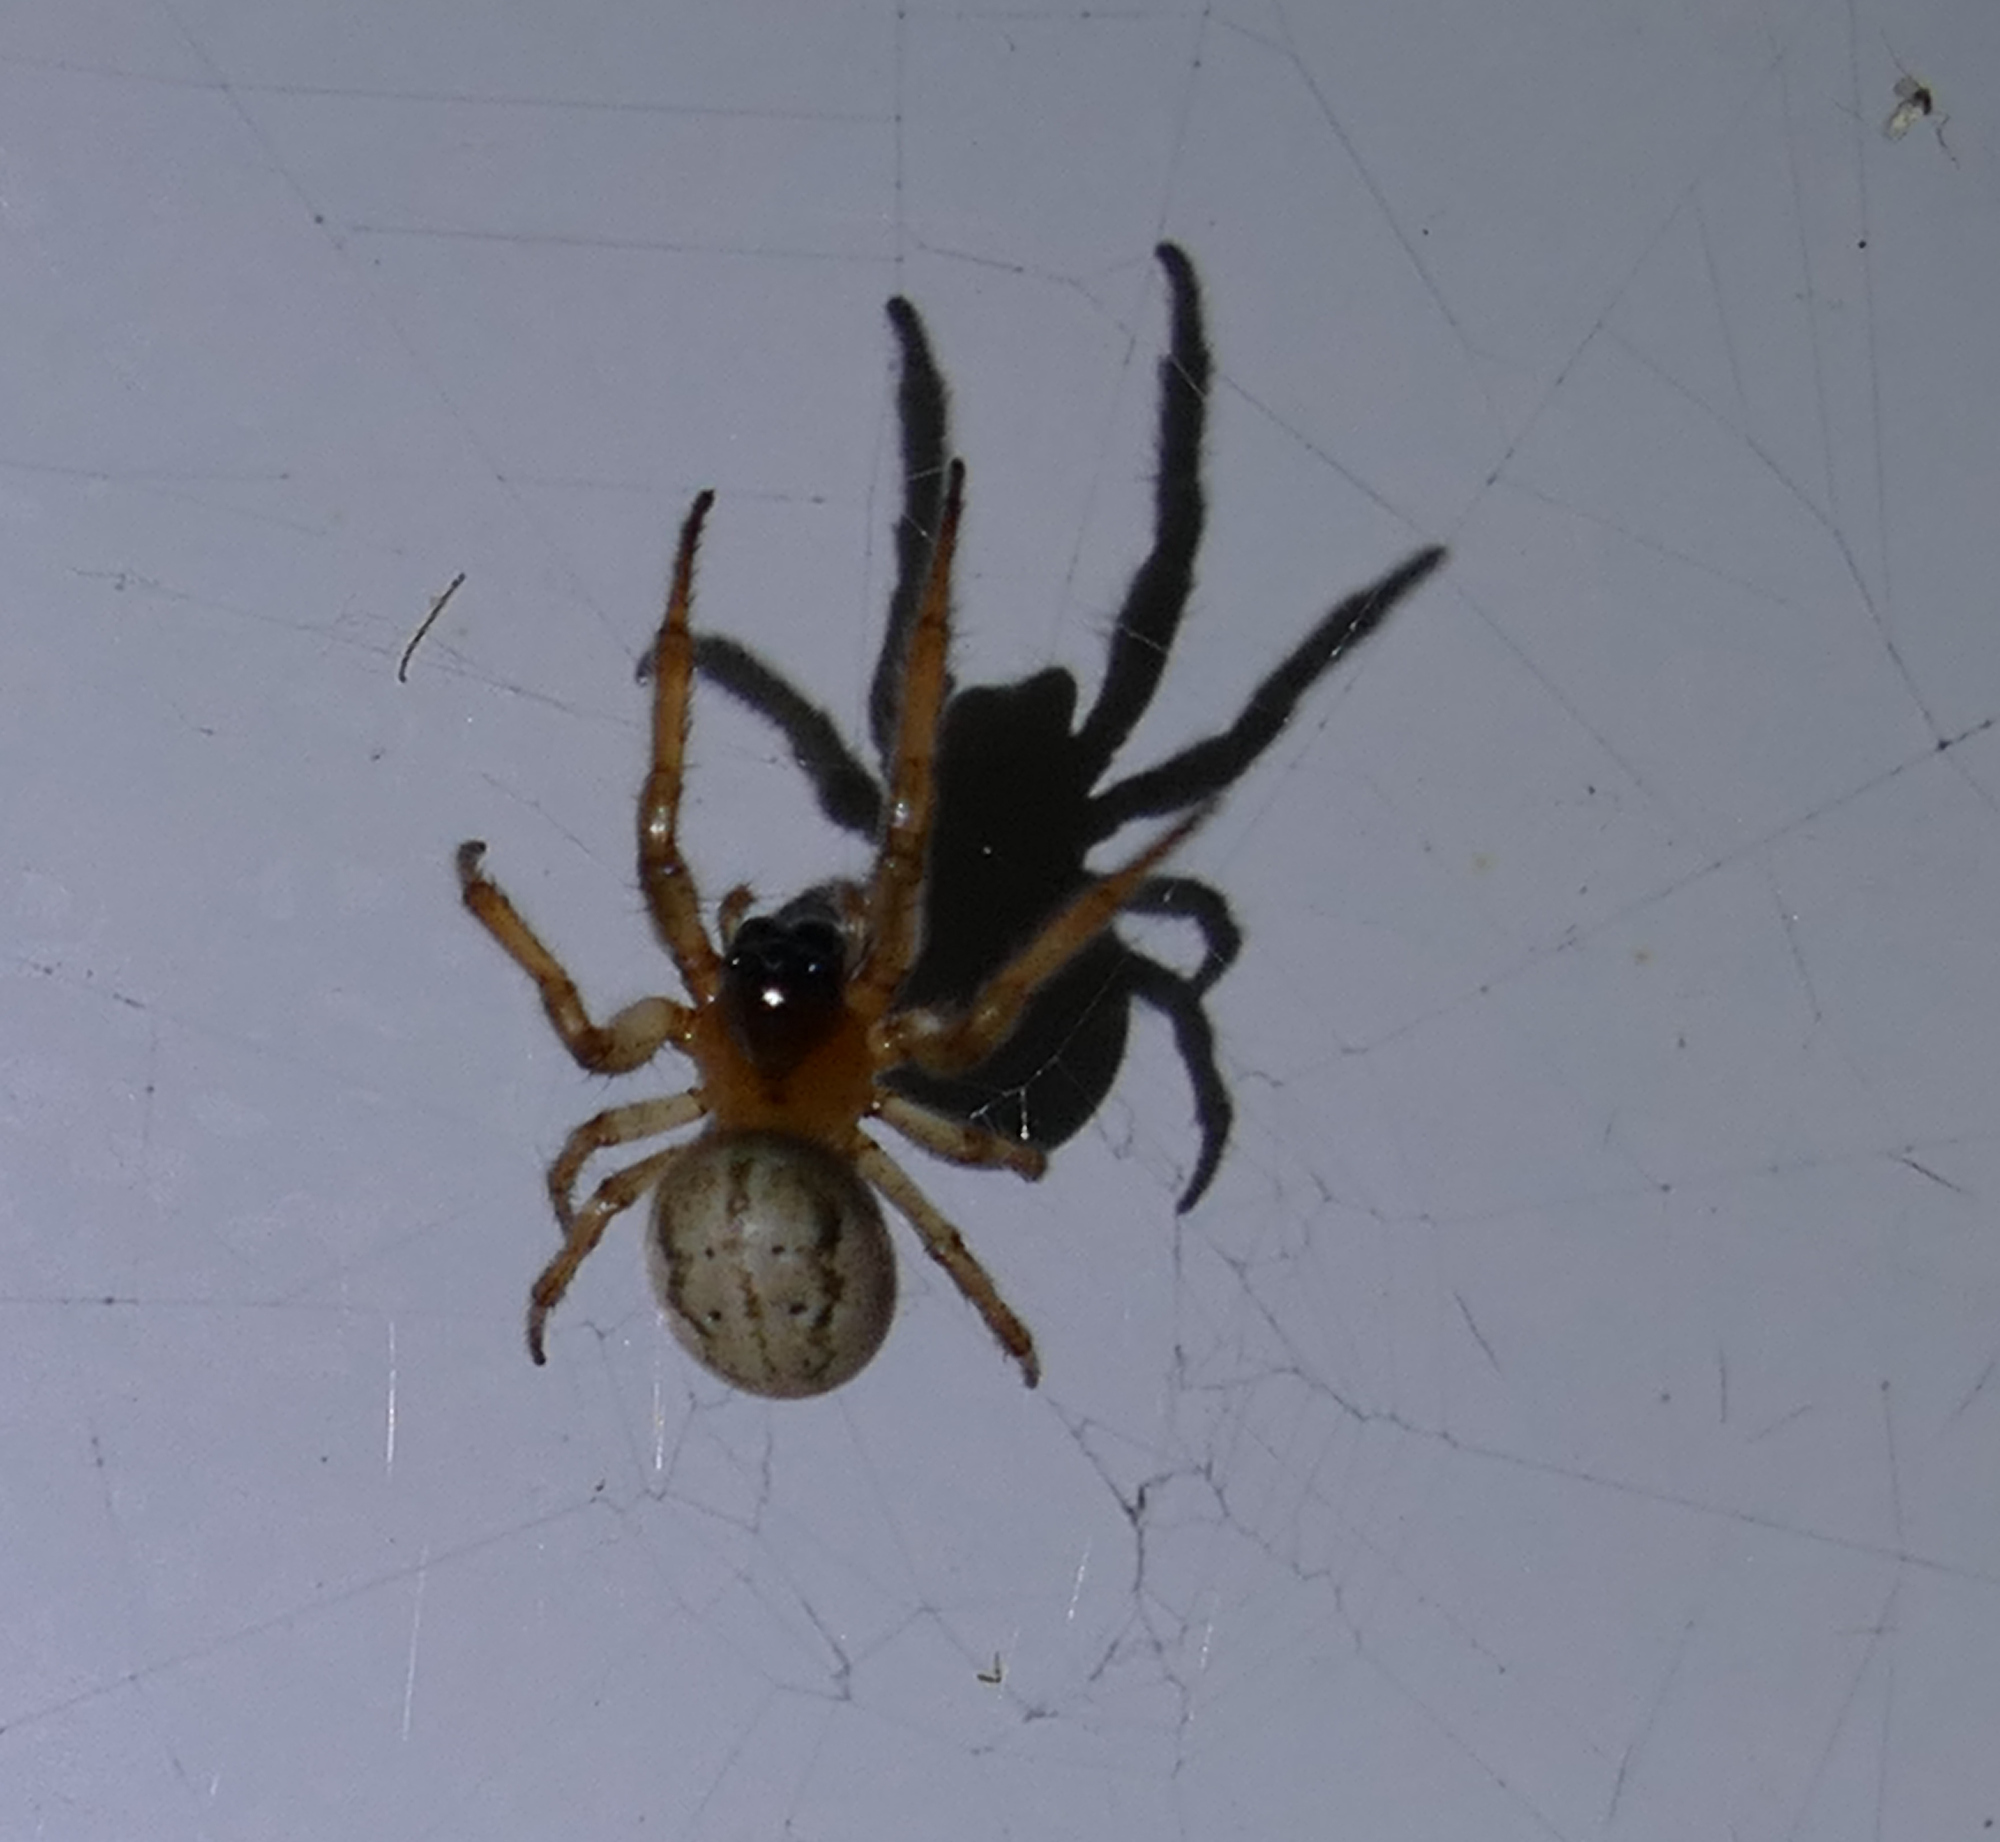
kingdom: Animalia
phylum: Arthropoda
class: Arachnida
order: Araneae
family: Araneidae
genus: Metazygia
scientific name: Metazygia wittfeldae
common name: Orb weavers
